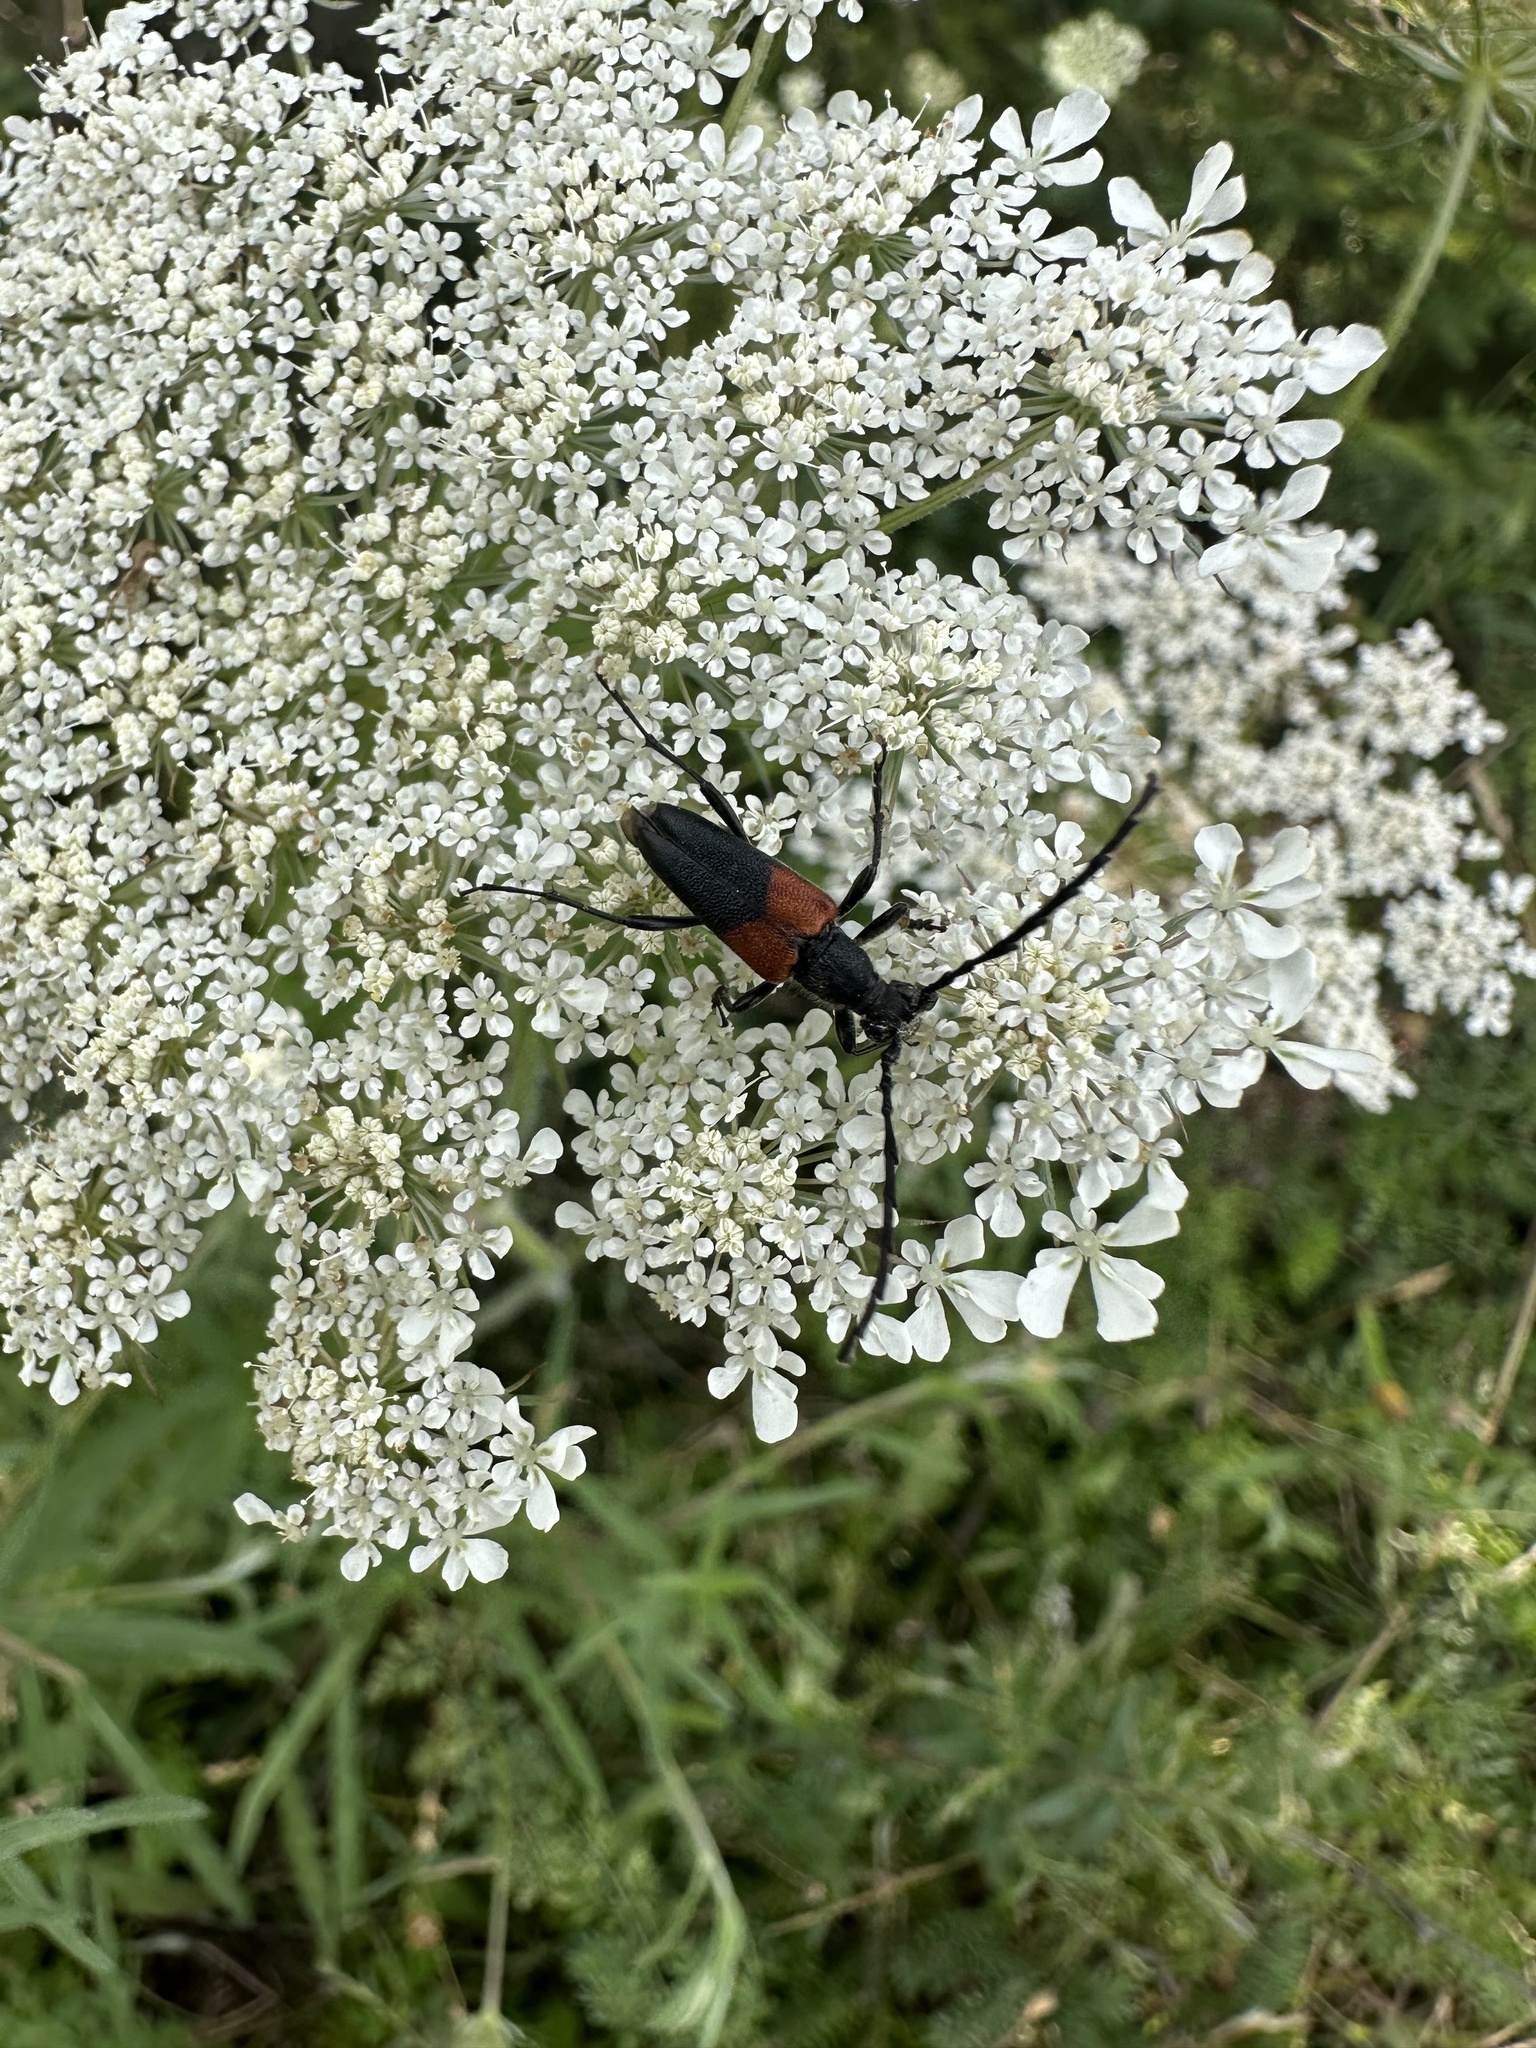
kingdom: Animalia
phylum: Arthropoda
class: Insecta
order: Coleoptera
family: Cerambycidae
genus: Stictoleptura
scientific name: Stictoleptura canadensis
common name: Red-shouldered pine borer
